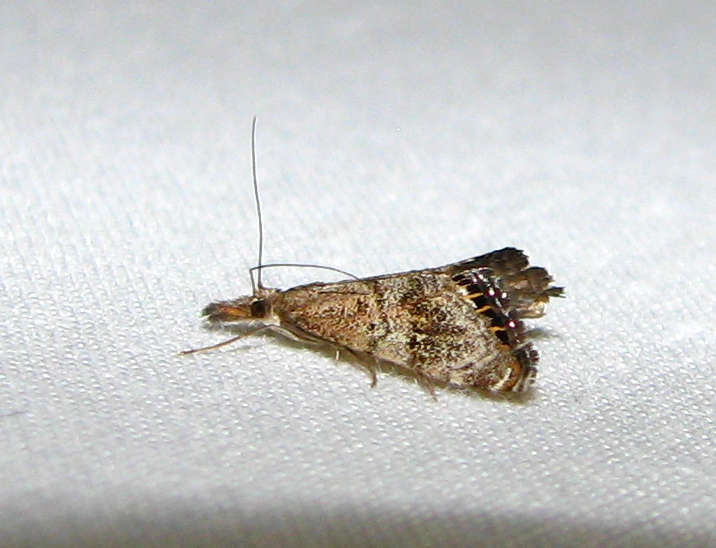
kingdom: Animalia
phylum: Arthropoda
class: Insecta
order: Lepidoptera
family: Crambidae
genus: Glaucocharis
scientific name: Glaucocharis dilatella
